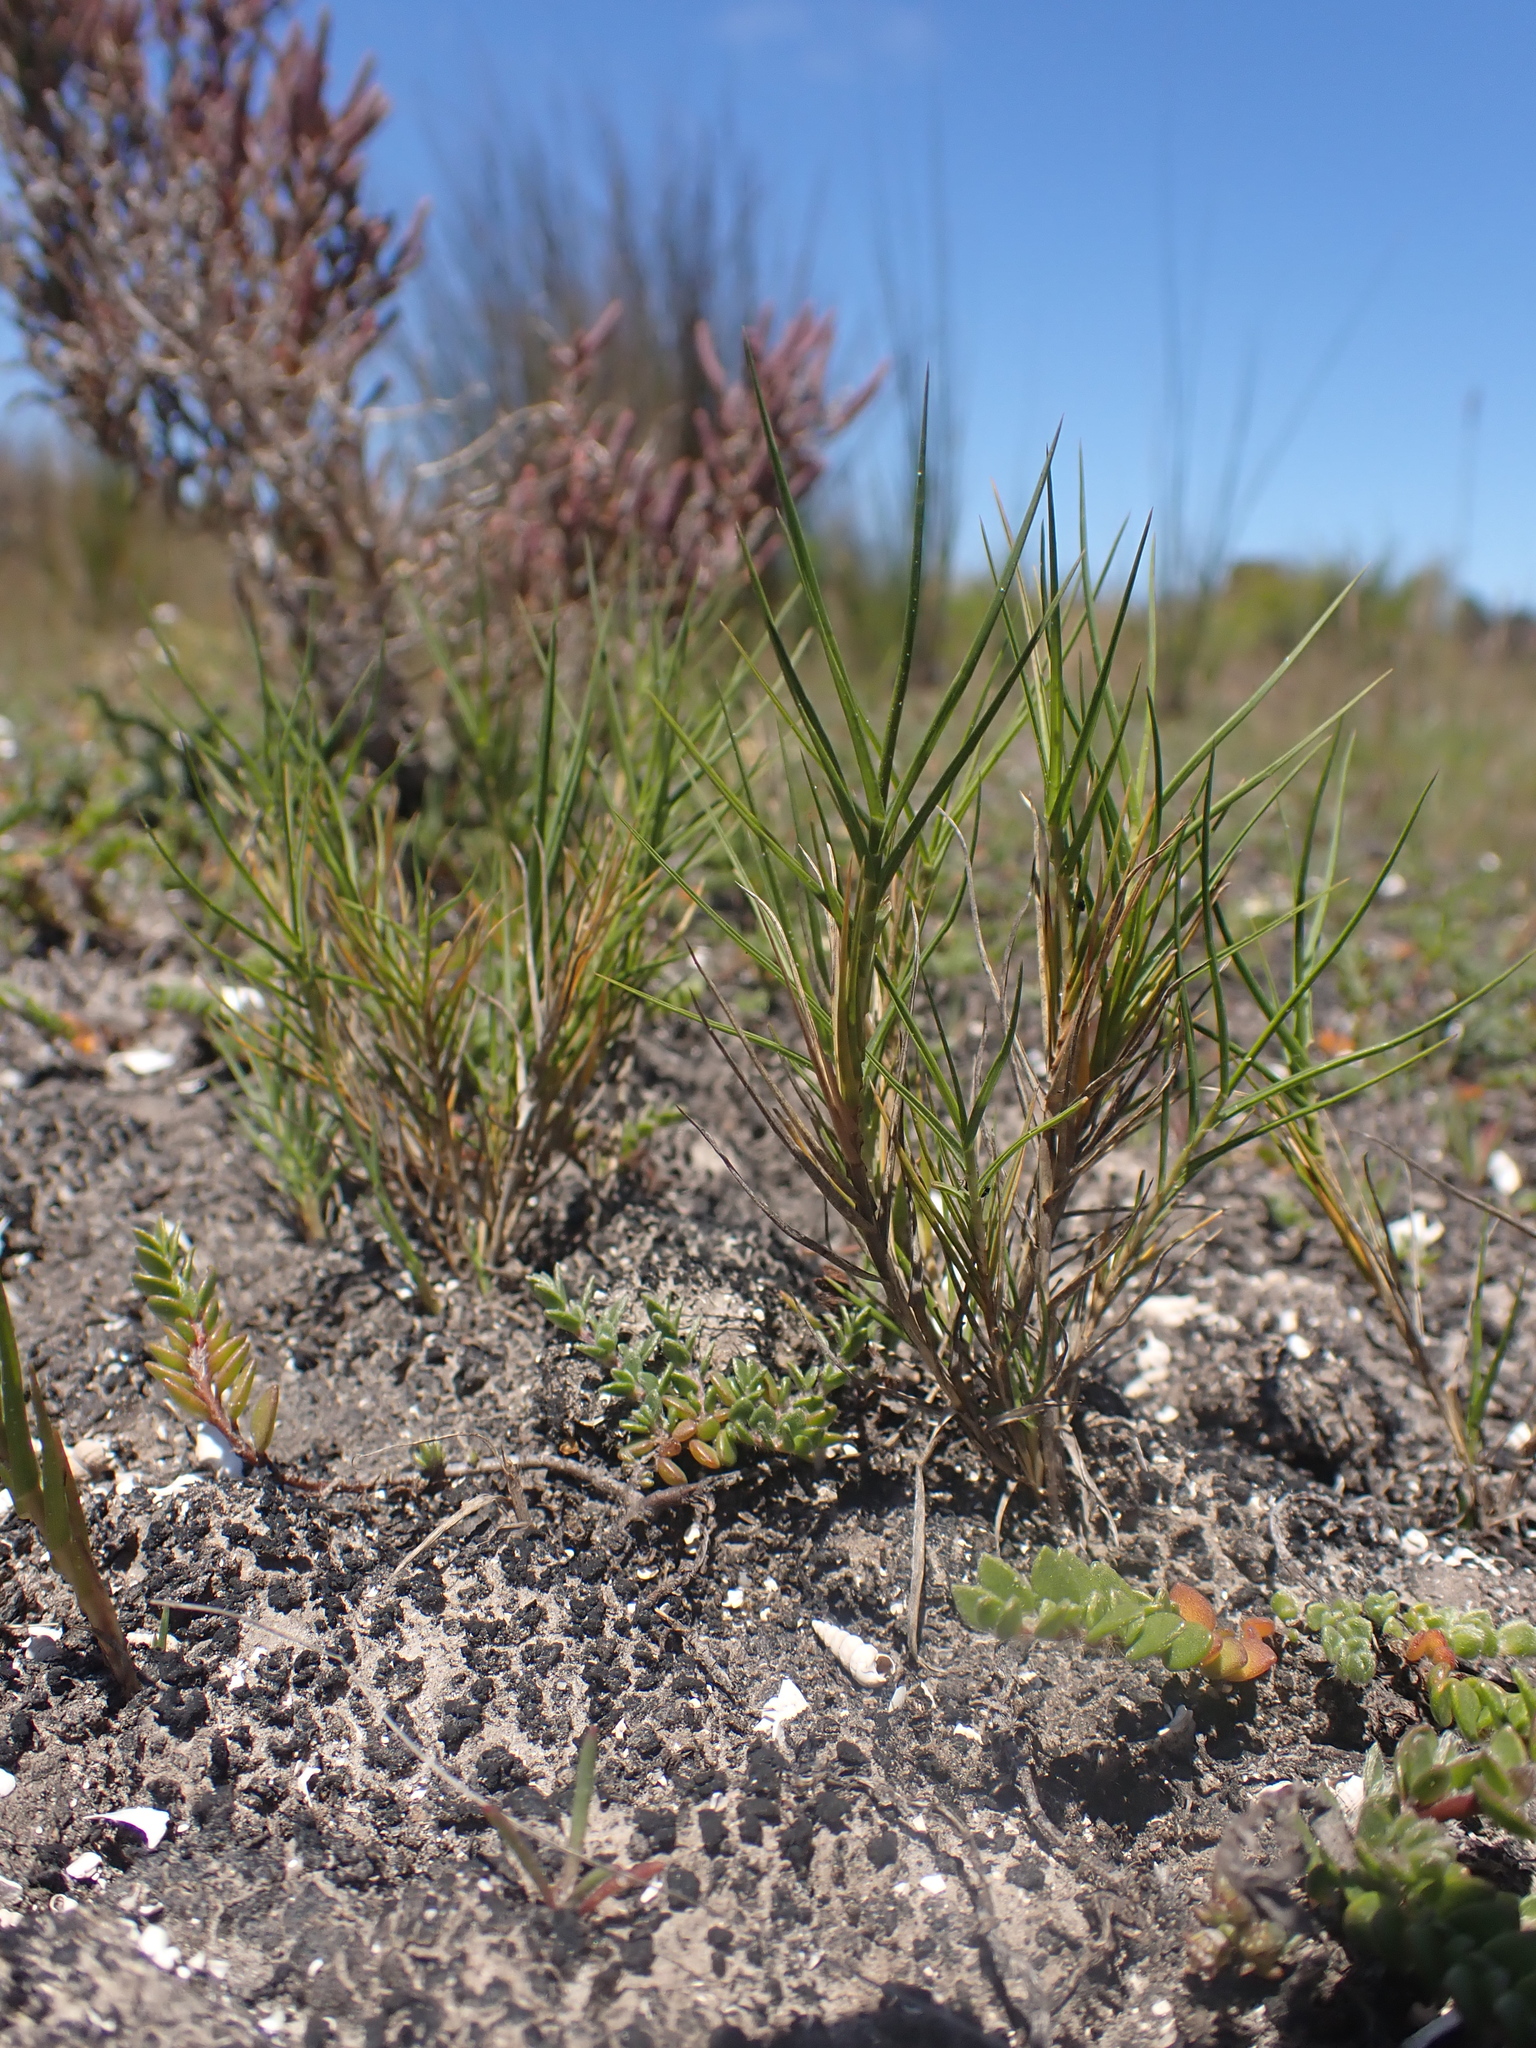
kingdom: Plantae
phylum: Tracheophyta
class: Liliopsida
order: Poales
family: Poaceae
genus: Distichlis
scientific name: Distichlis distichophylla
